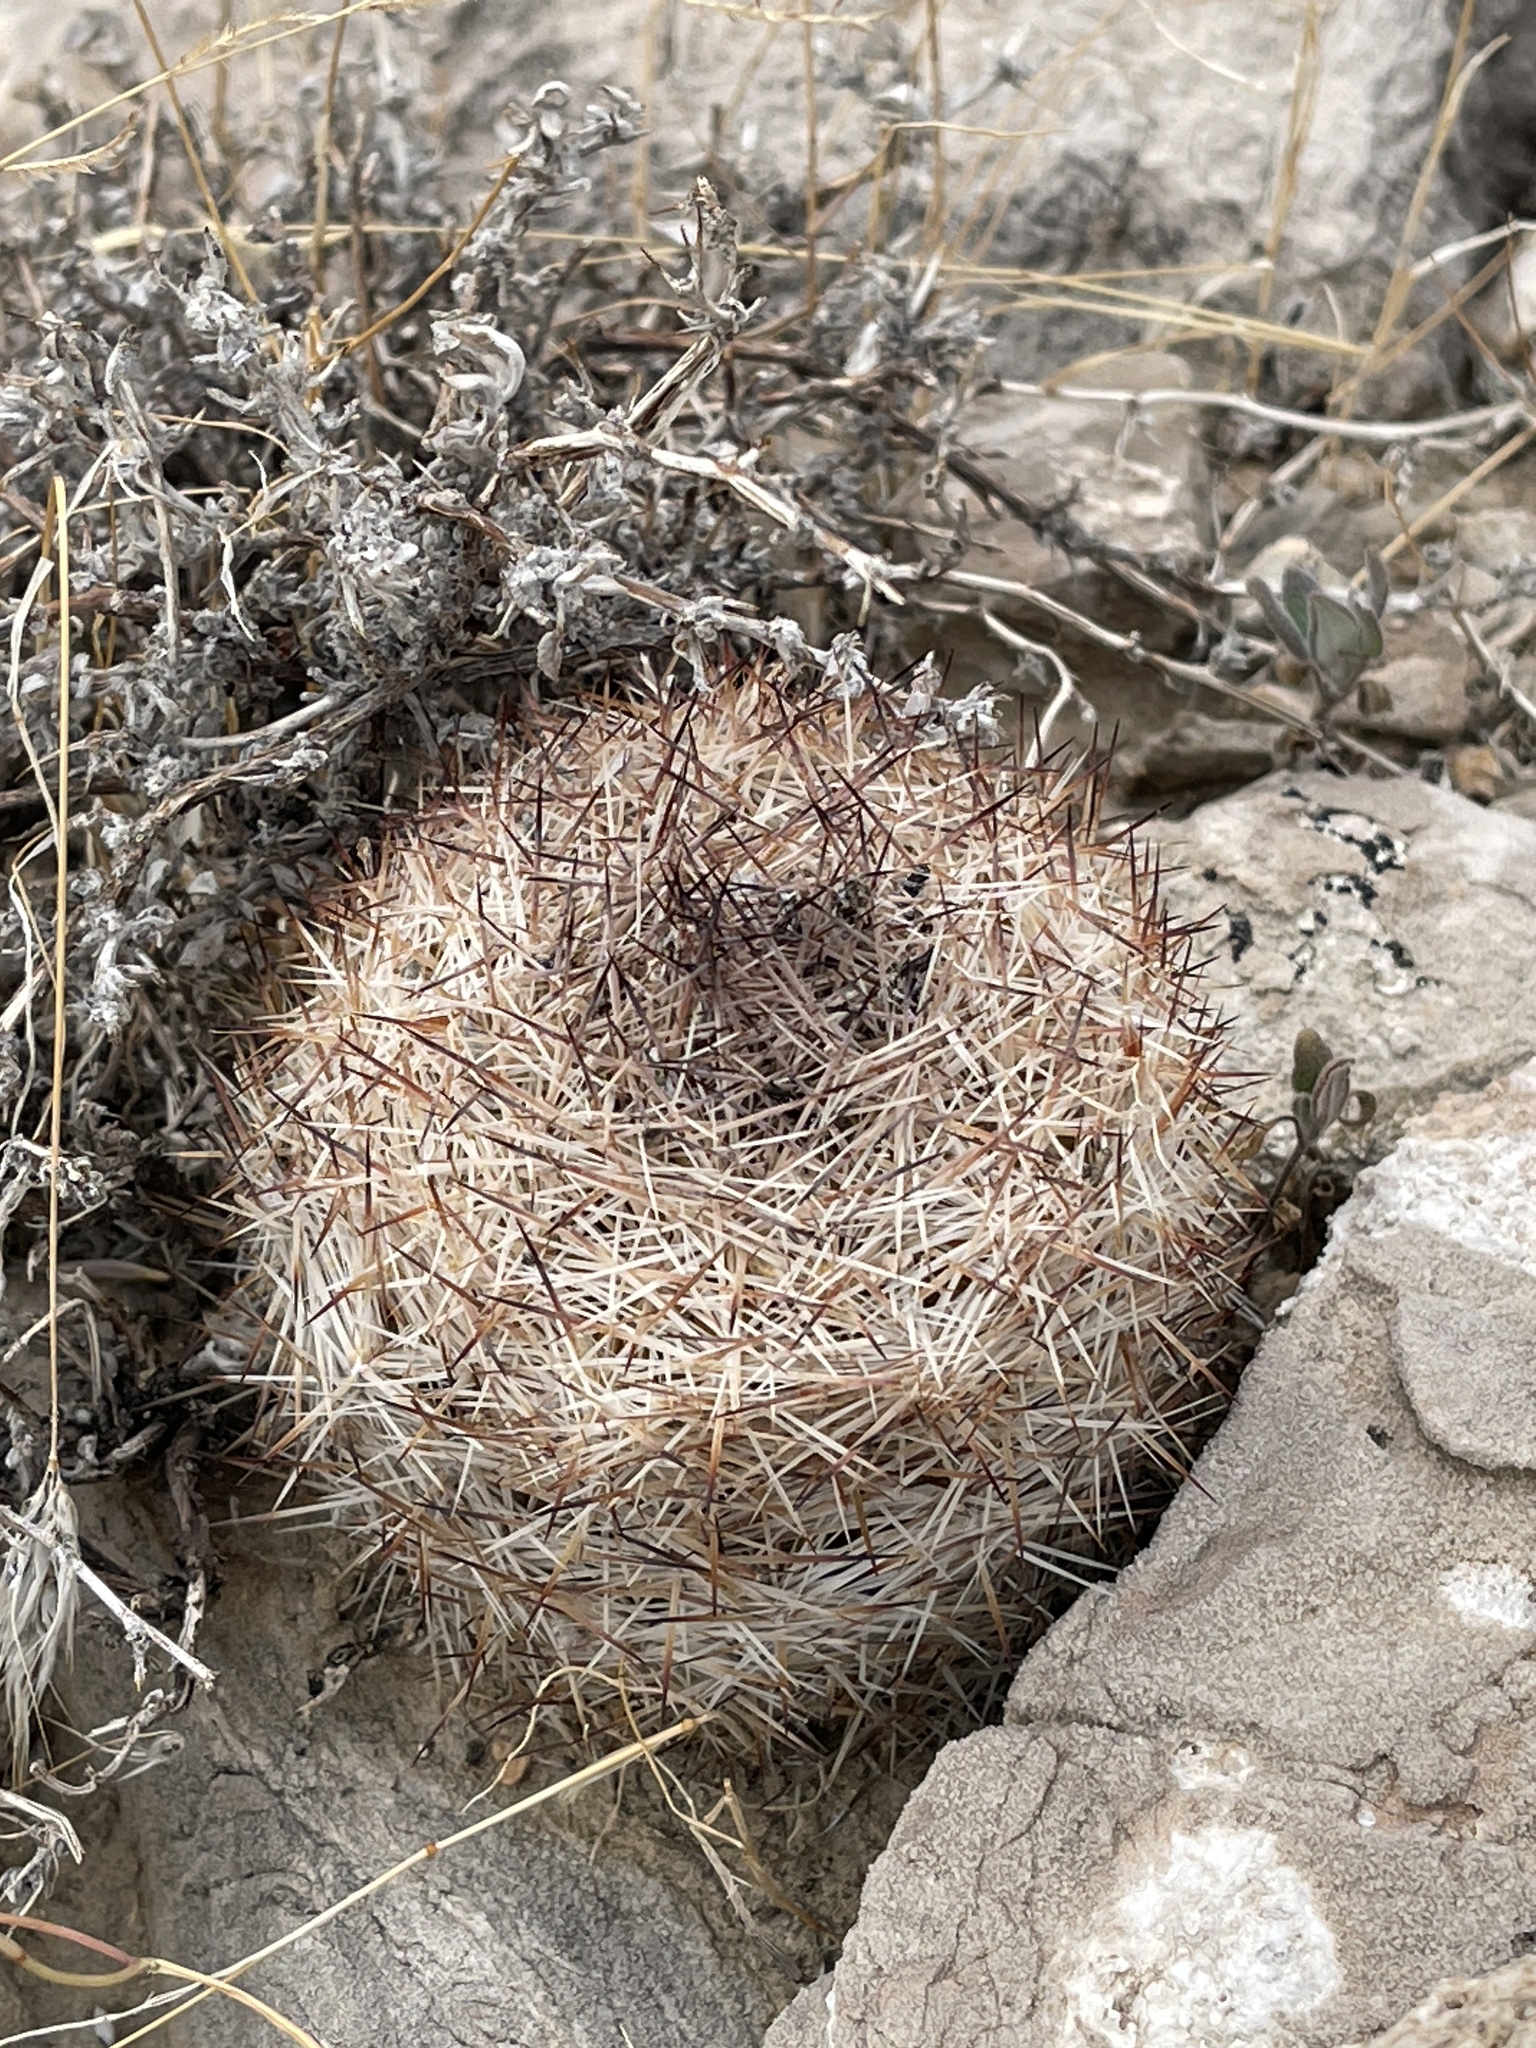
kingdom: Plantae
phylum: Tracheophyta
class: Magnoliopsida
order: Caryophyllales
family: Cactaceae
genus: Pelecyphora
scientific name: Pelecyphora dasyacantha
